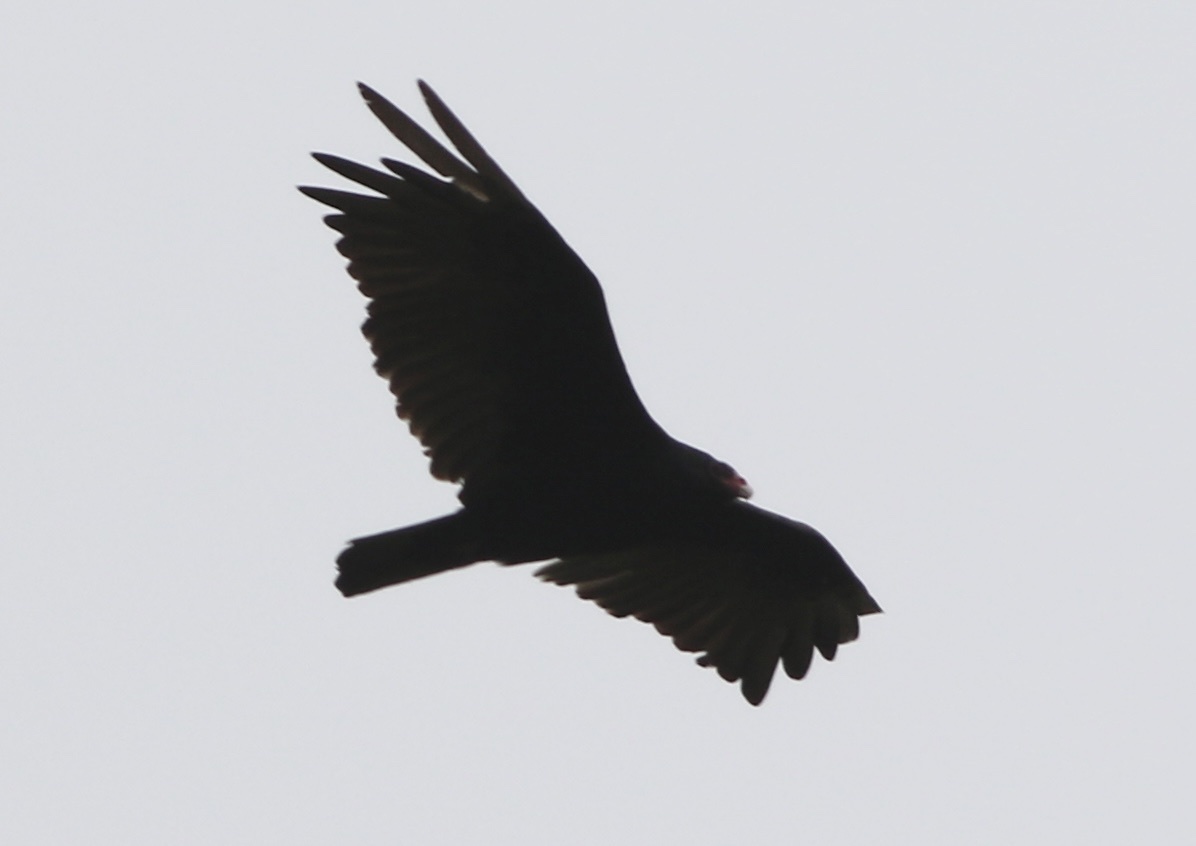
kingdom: Animalia
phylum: Chordata
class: Aves
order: Accipitriformes
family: Cathartidae
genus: Cathartes
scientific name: Cathartes aura
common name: Turkey vulture
